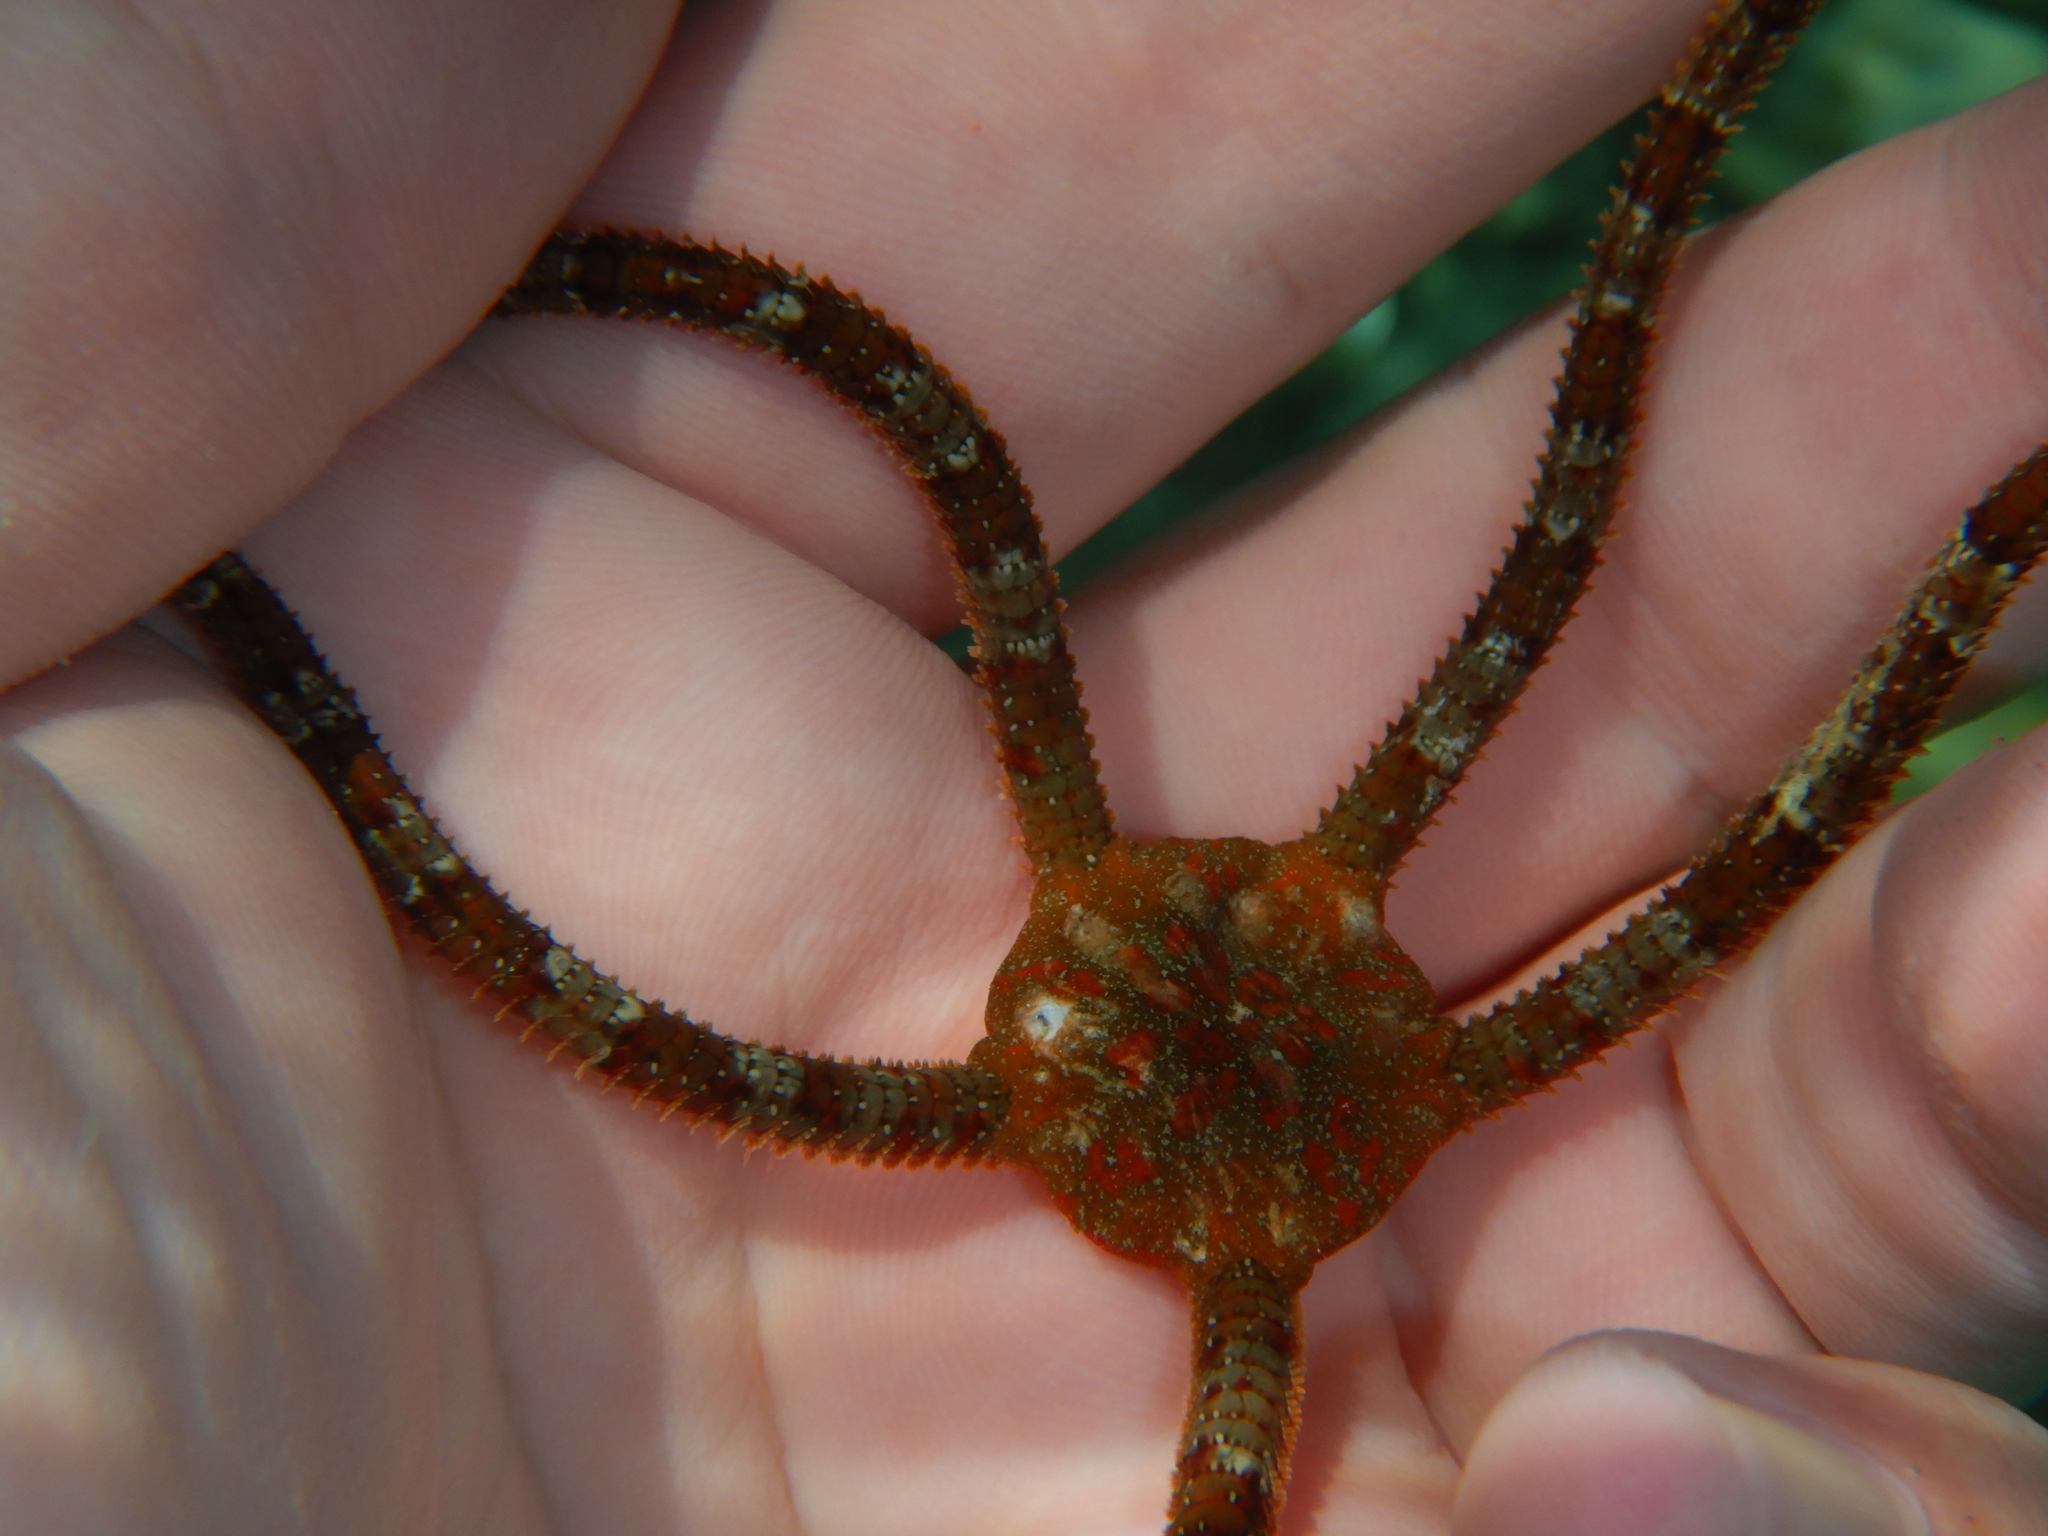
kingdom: Animalia
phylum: Echinodermata
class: Ophiuroidea
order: Ophiacanthida
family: Ophiodermatidae
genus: Ophioderma
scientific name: Ophioderma longicaudum
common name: Smooth brittle-star
